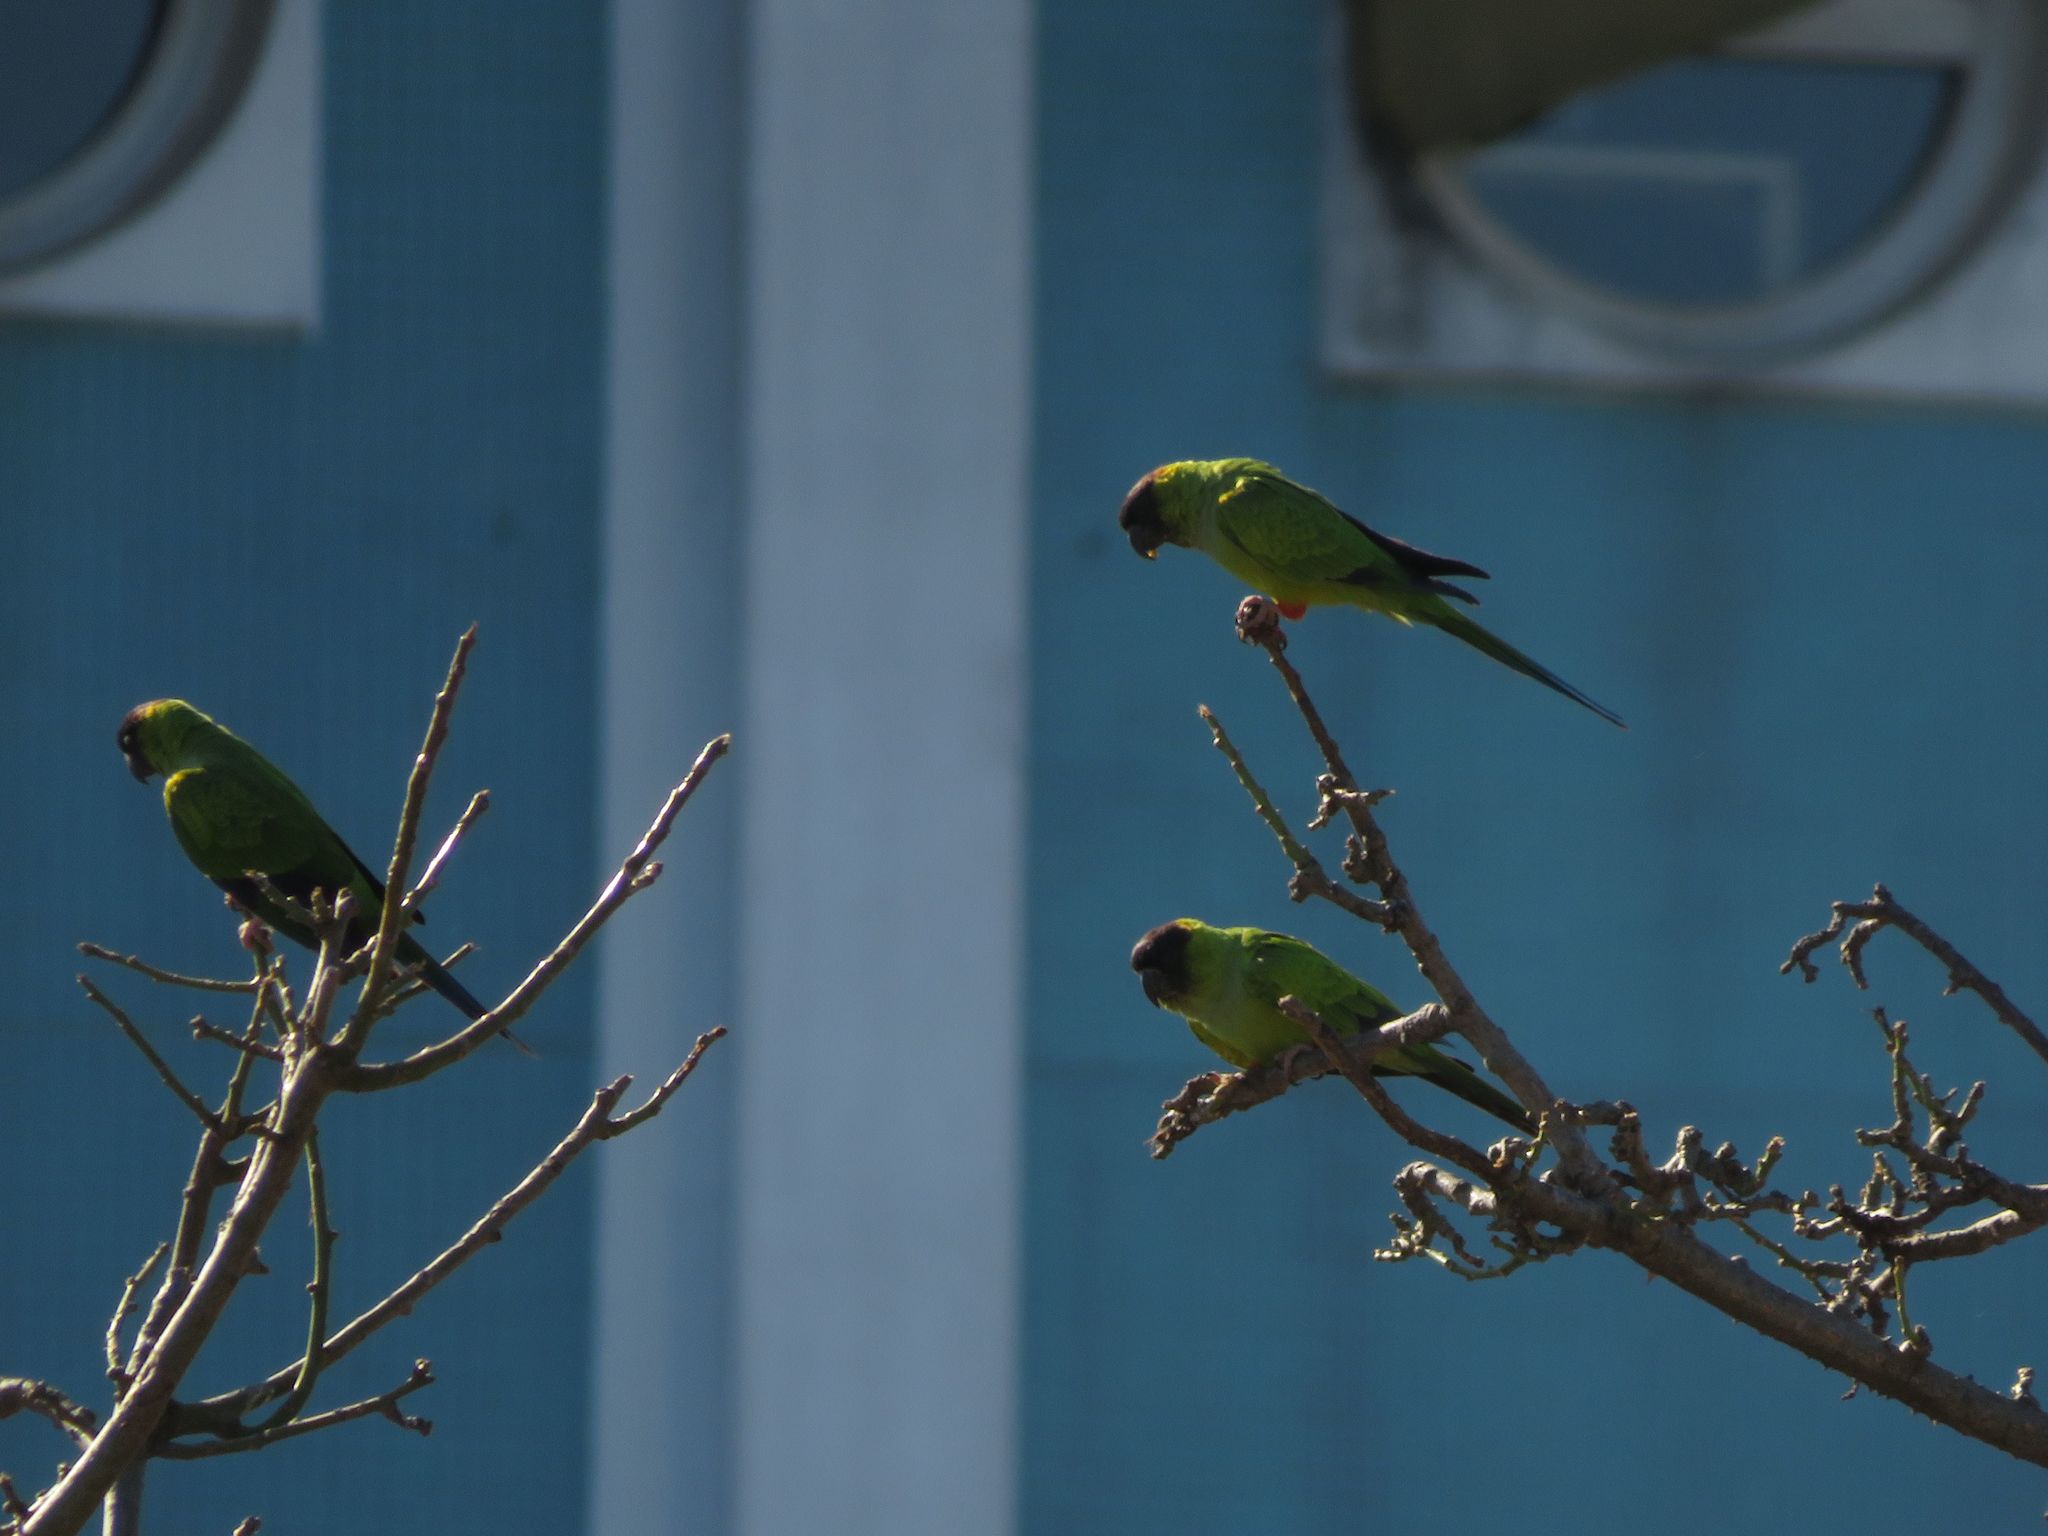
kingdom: Animalia
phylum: Chordata
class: Aves
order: Psittaciformes
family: Psittacidae
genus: Nandayus
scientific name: Nandayus nenday
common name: Nanday parakeet
